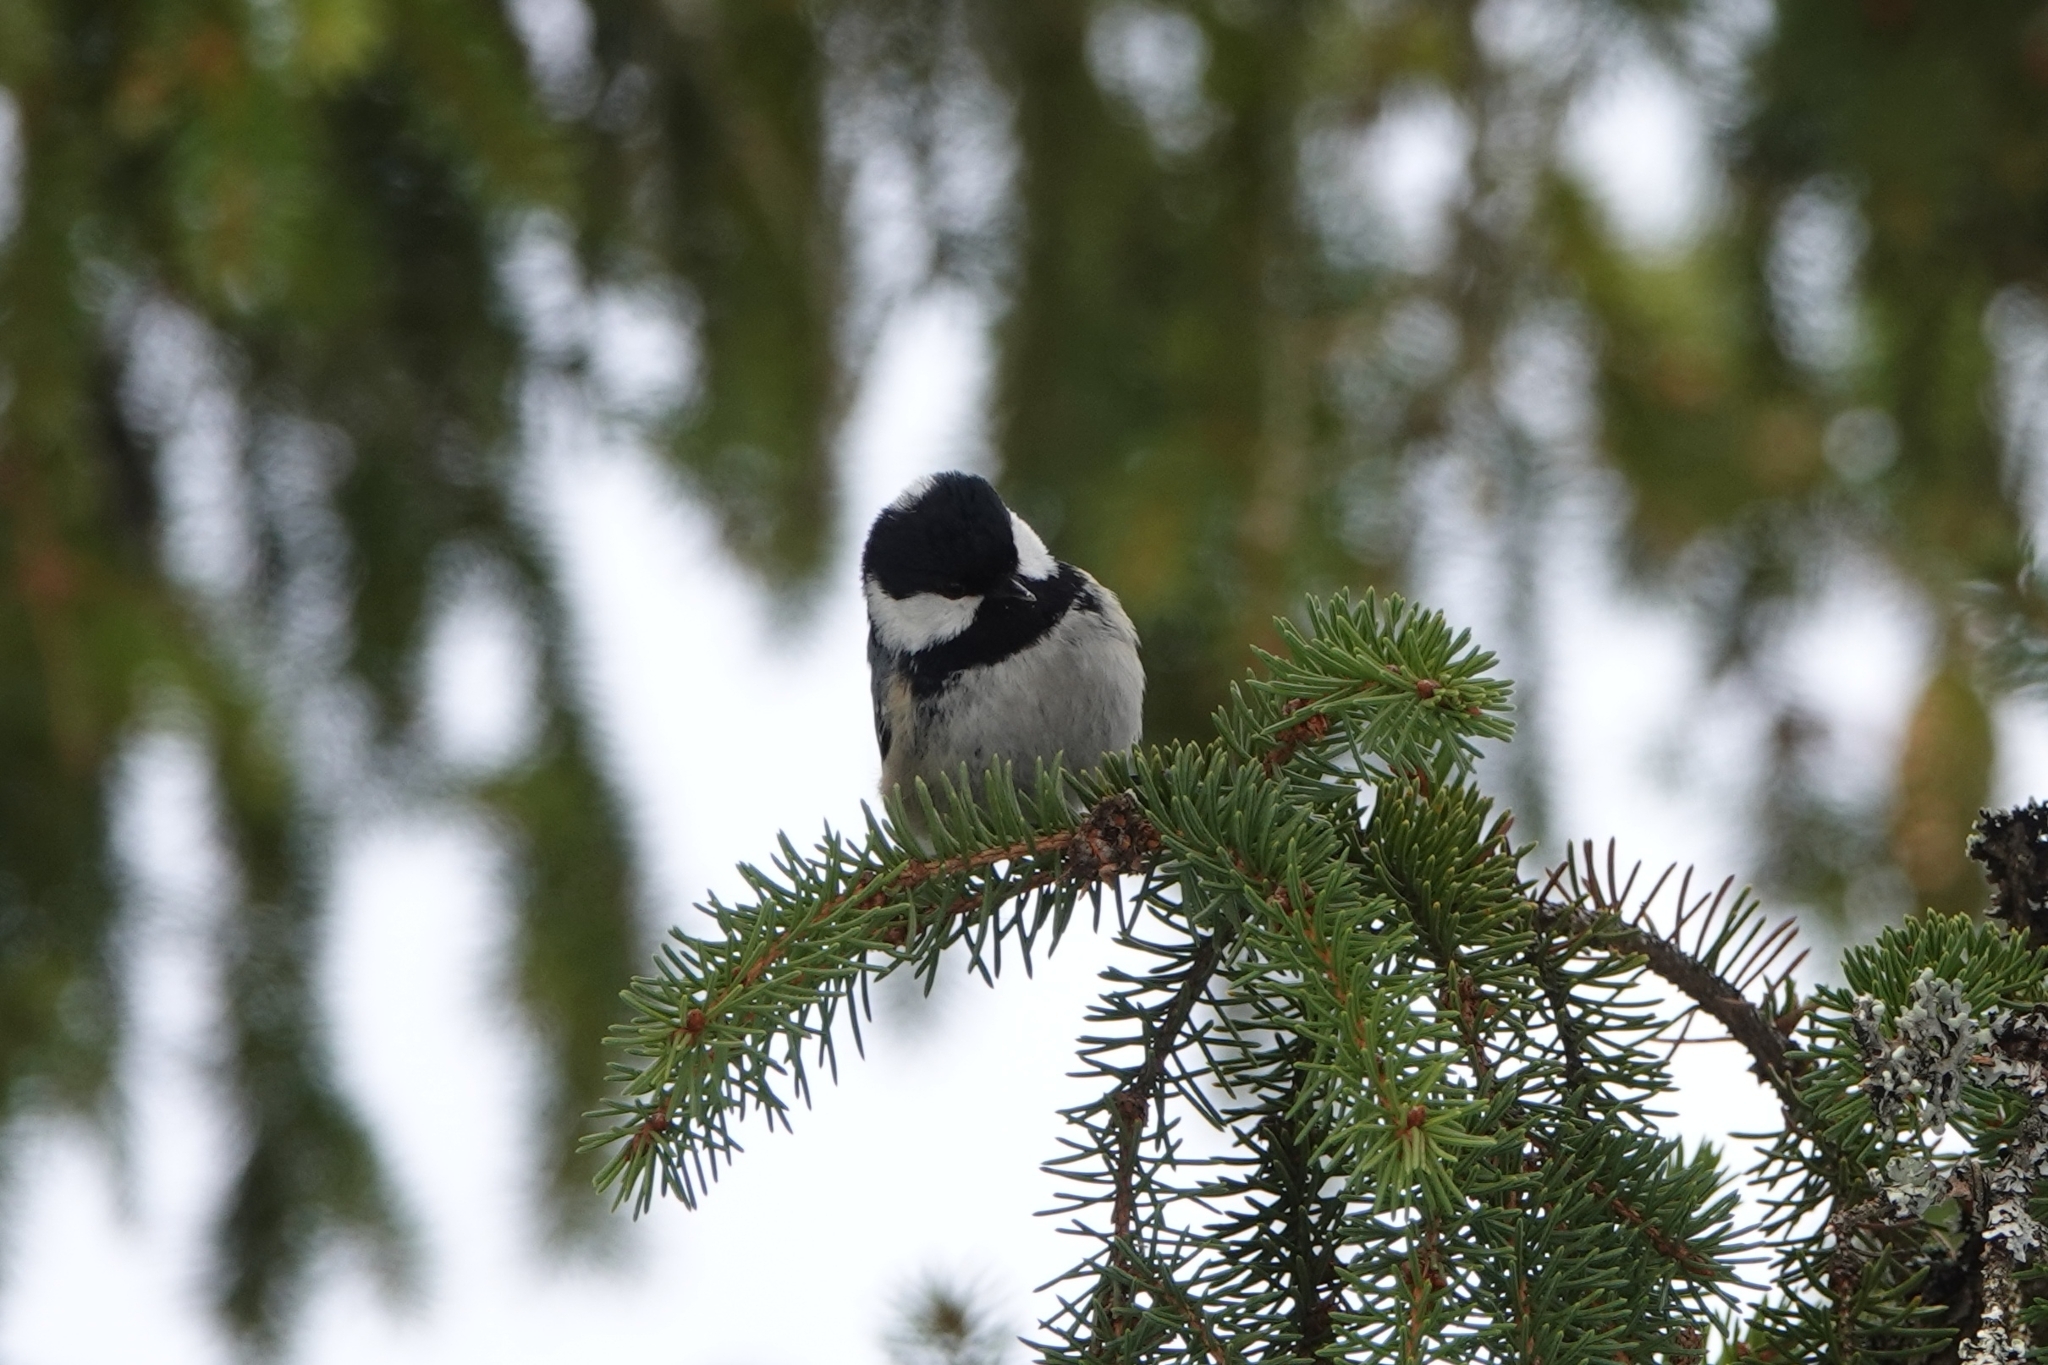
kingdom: Animalia
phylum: Chordata
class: Aves
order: Passeriformes
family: Paridae
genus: Periparus
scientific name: Periparus ater
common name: Coal tit
